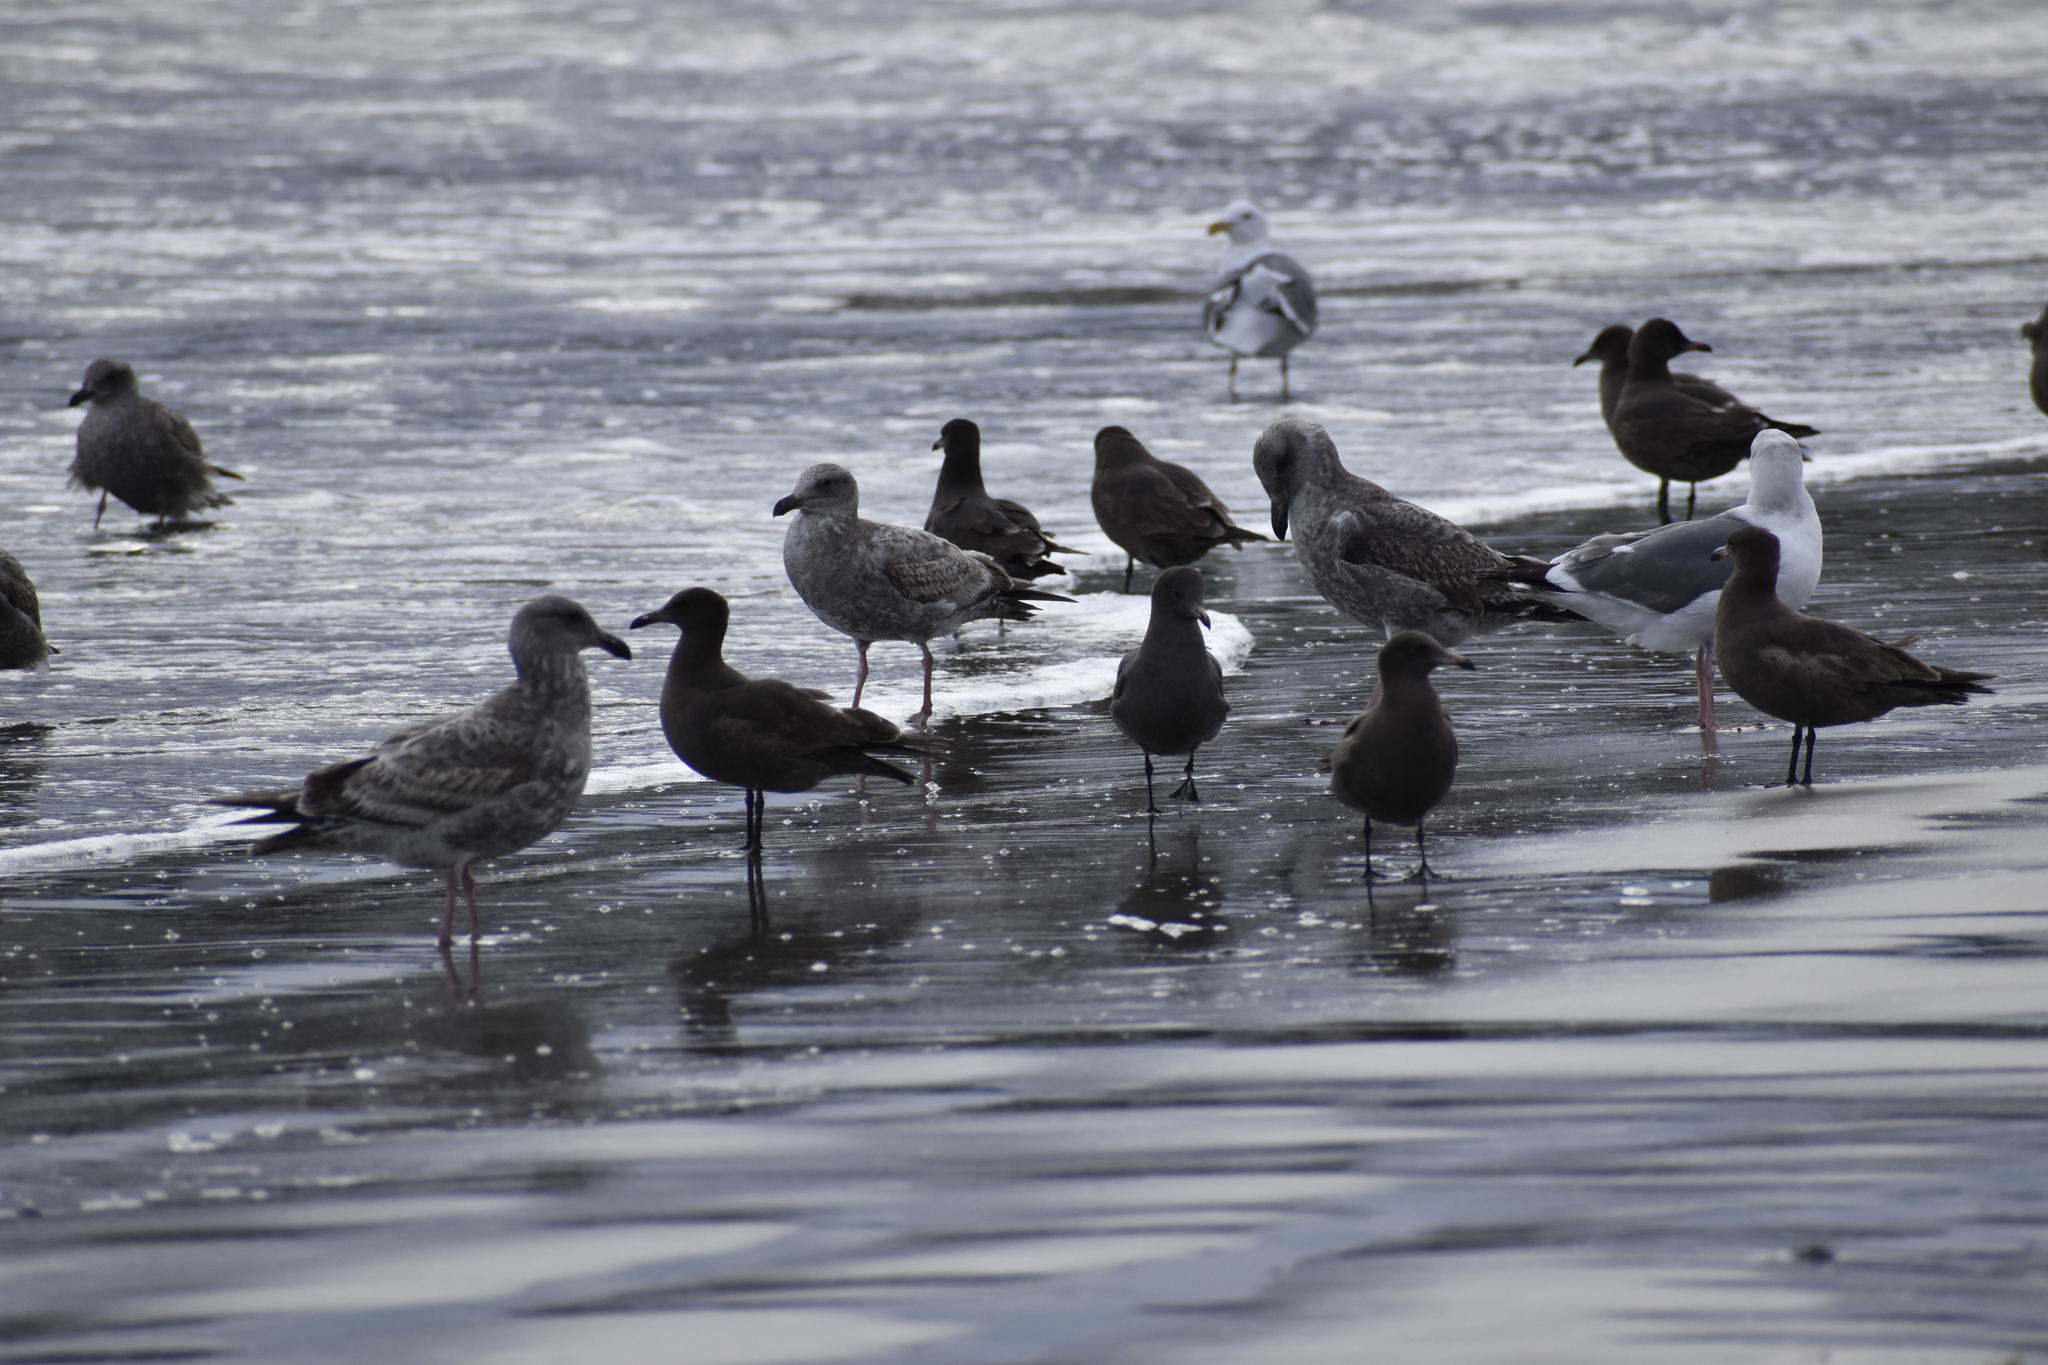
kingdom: Animalia
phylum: Chordata
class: Aves
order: Charadriiformes
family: Laridae
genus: Larus
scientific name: Larus heermanni
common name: Heermann's gull
